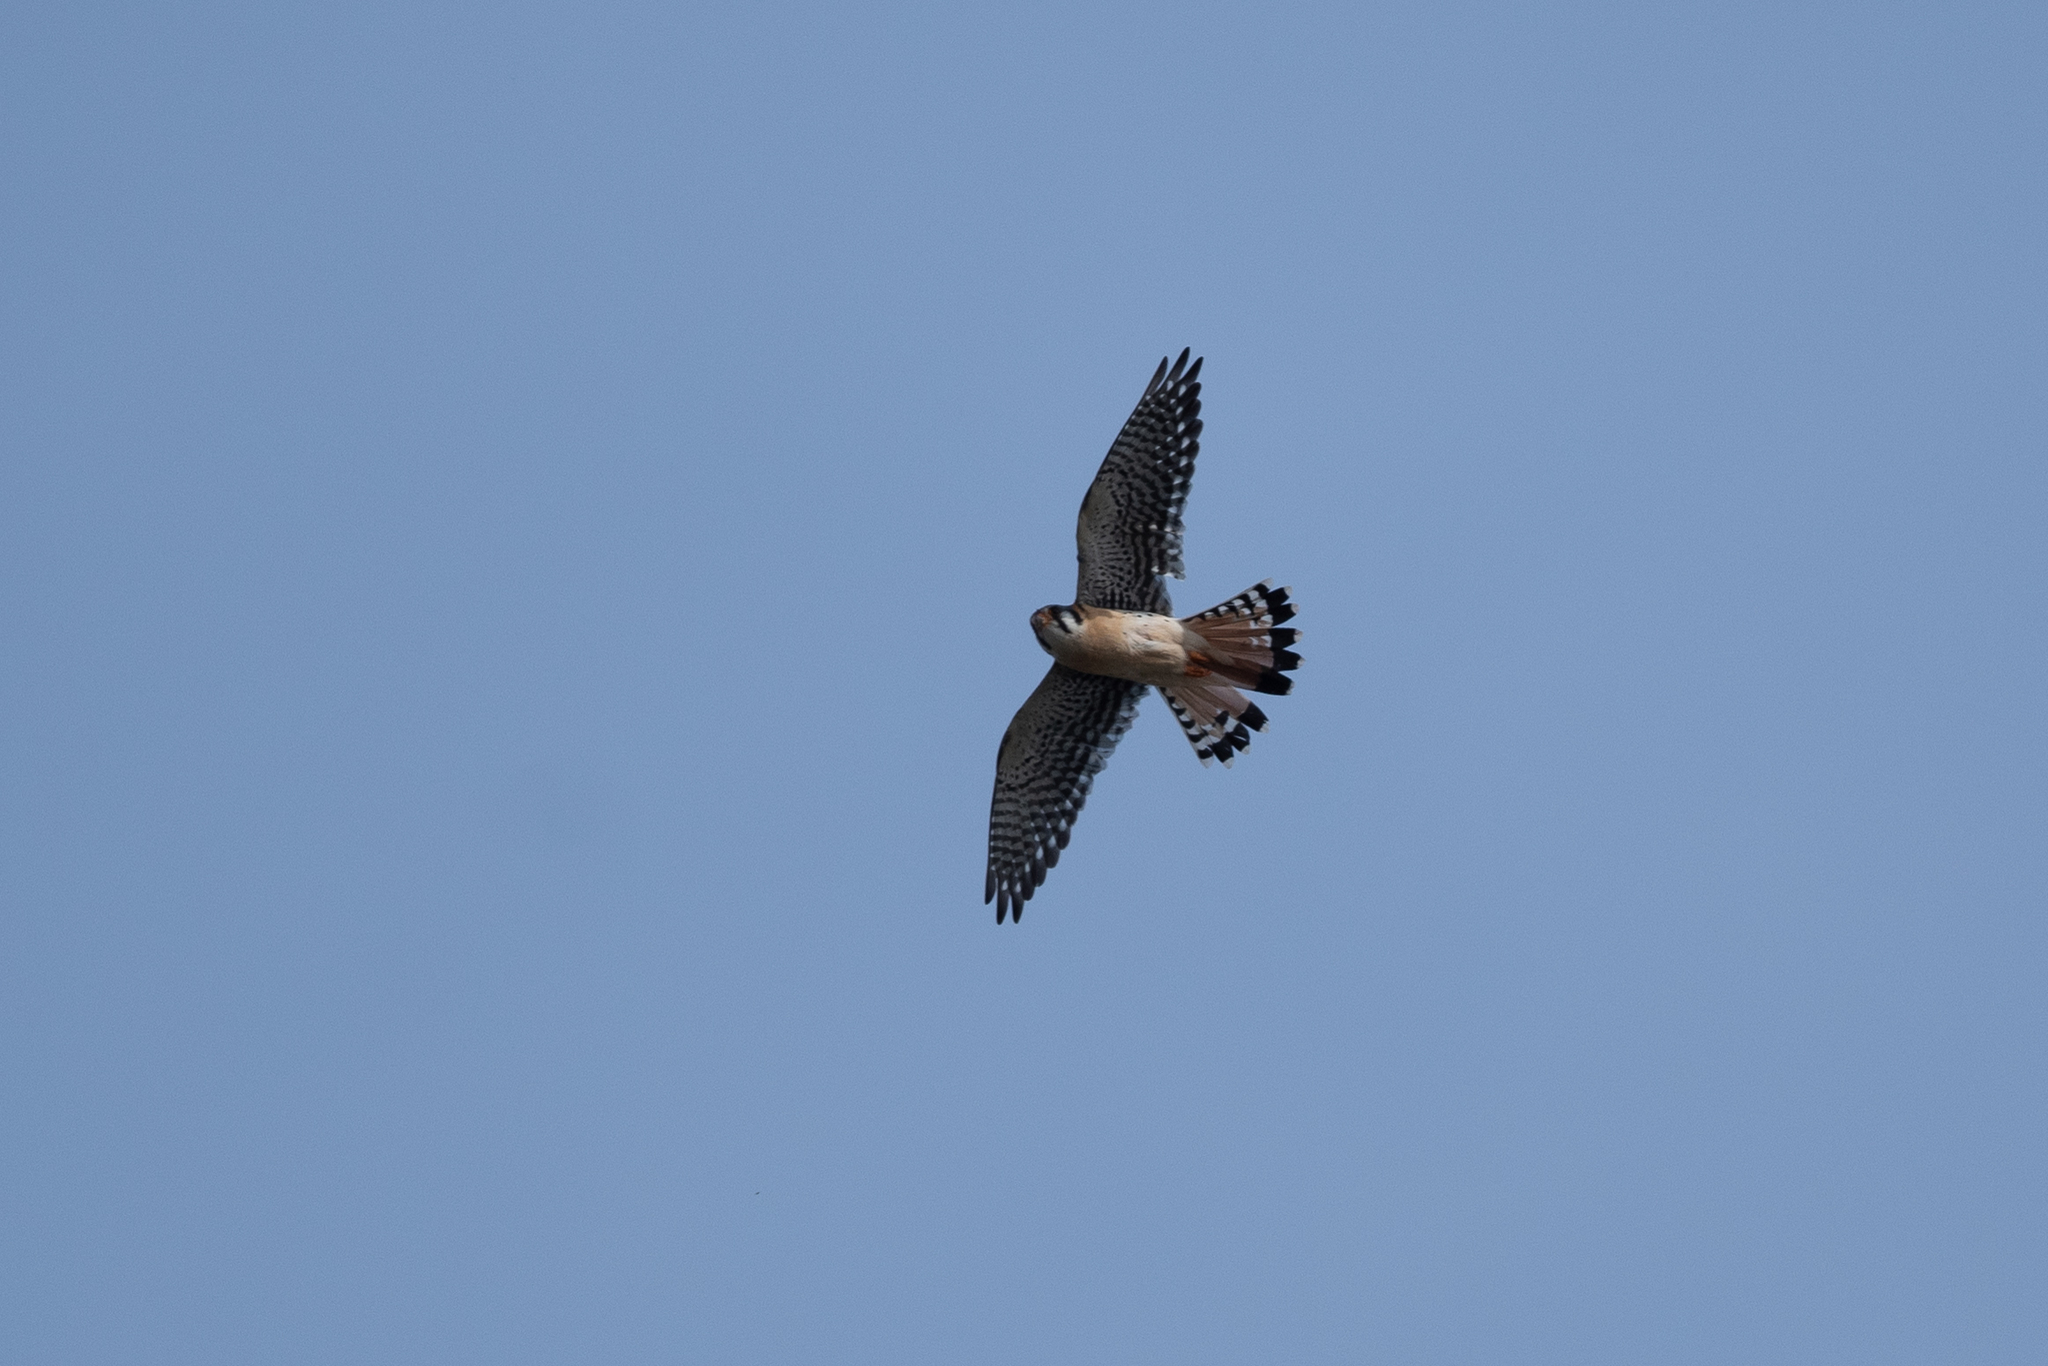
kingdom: Animalia
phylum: Chordata
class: Aves
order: Falconiformes
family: Falconidae
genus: Falco
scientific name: Falco sparverius
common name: American kestrel
